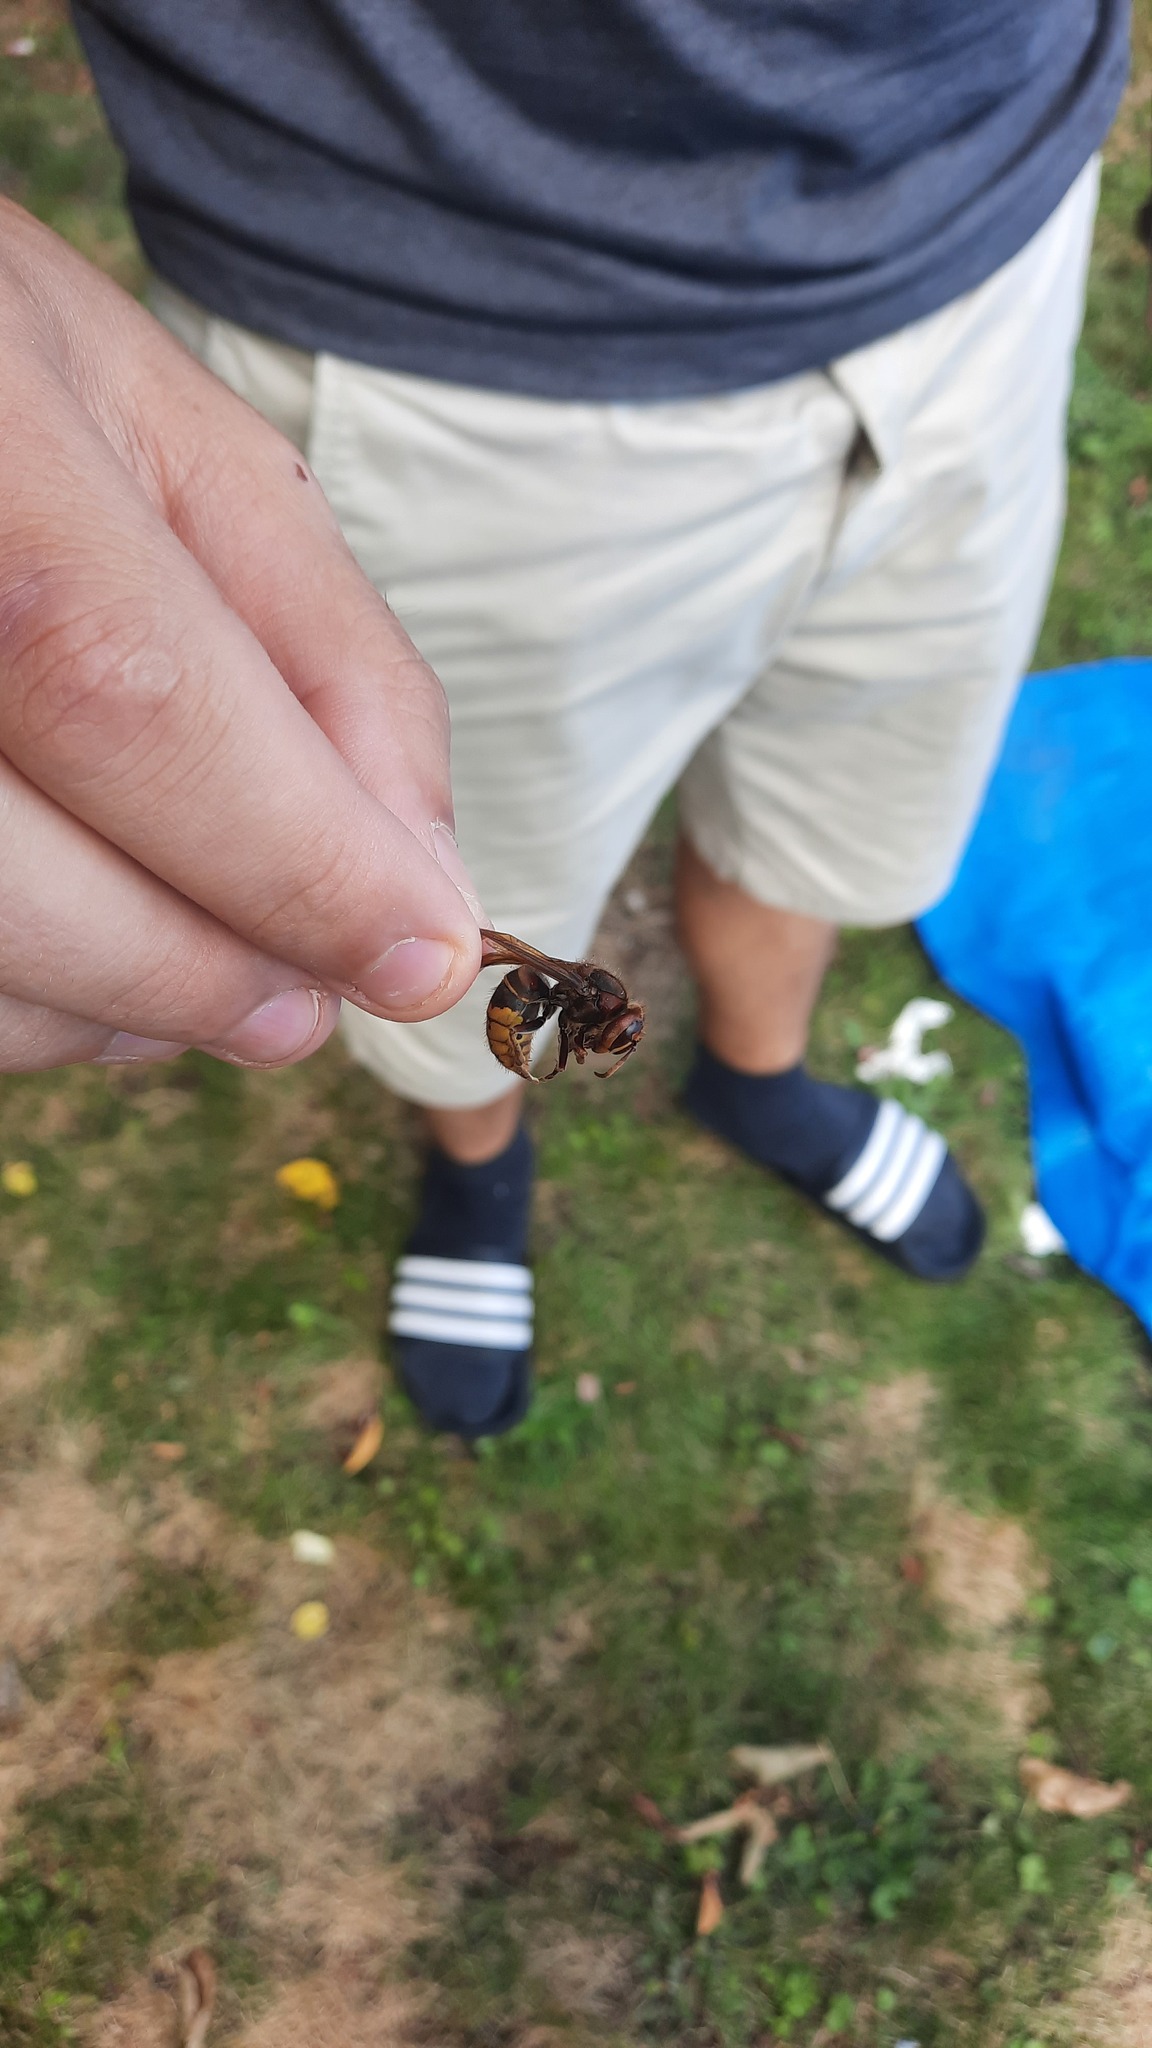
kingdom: Animalia
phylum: Arthropoda
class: Insecta
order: Hymenoptera
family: Vespidae
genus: Vespa
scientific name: Vespa crabro
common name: Hornet
